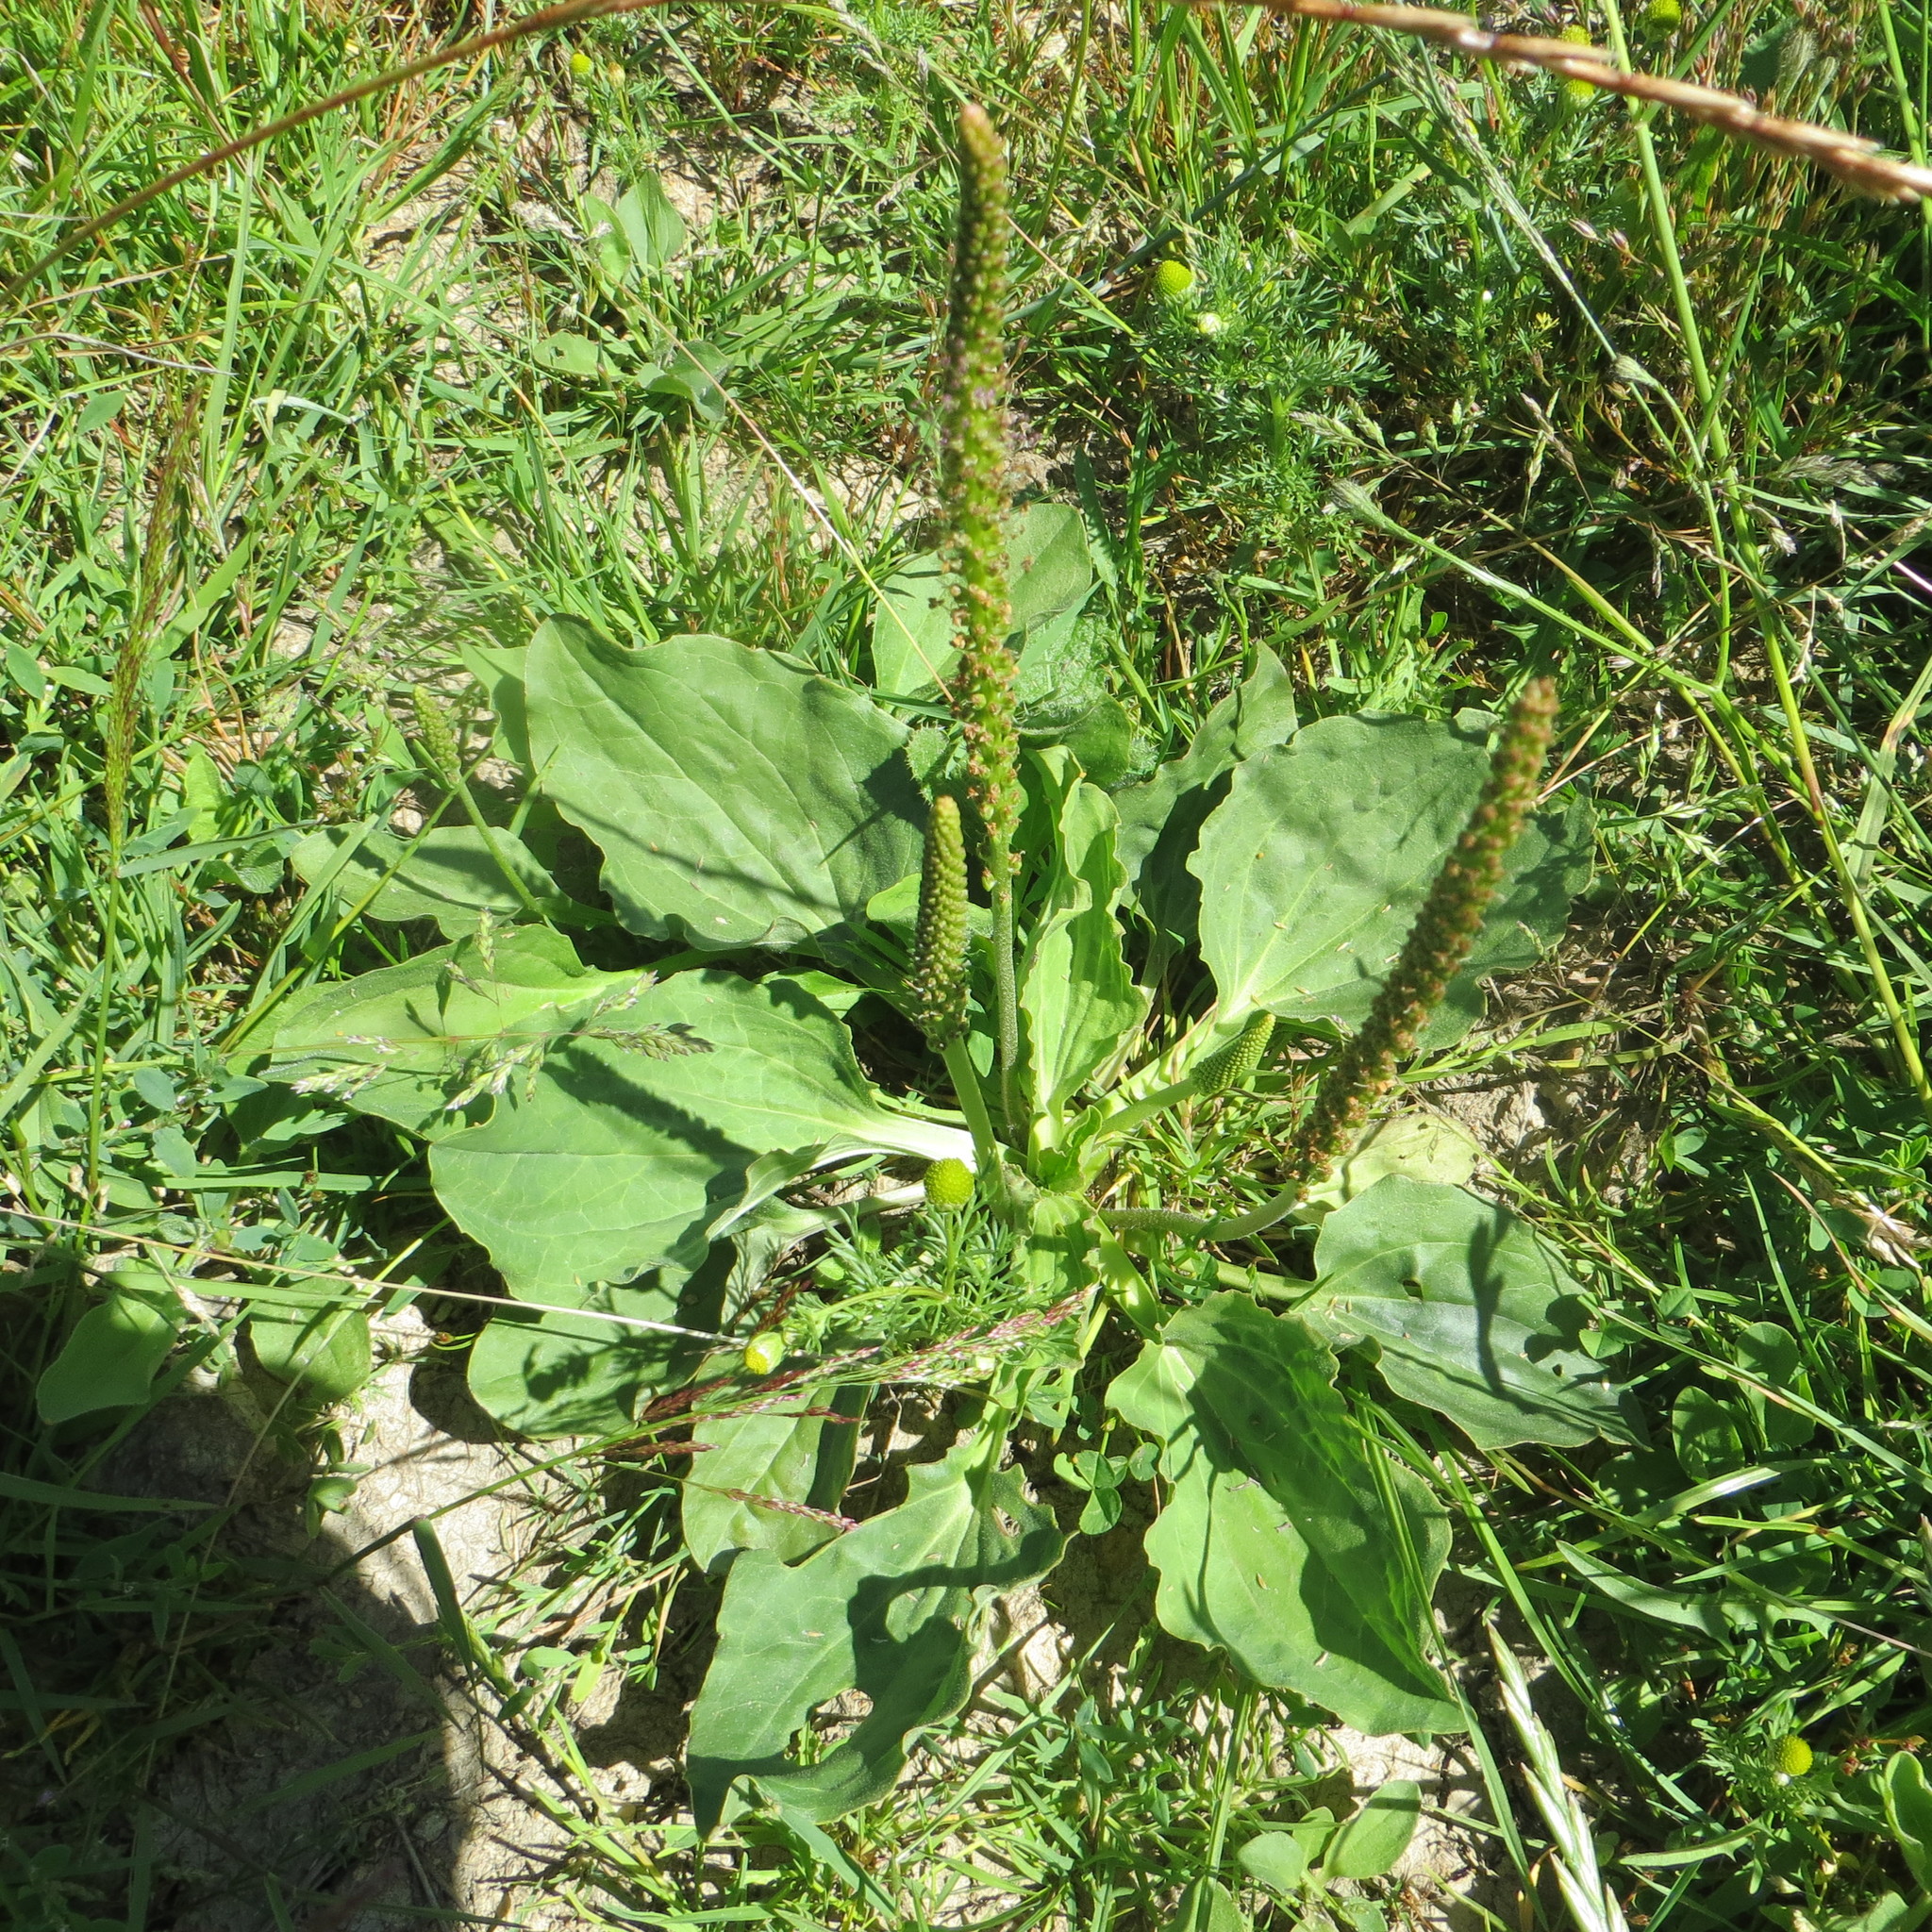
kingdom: Plantae
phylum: Tracheophyta
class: Magnoliopsida
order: Lamiales
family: Plantaginaceae
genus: Plantago
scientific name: Plantago major
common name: Common plantain
